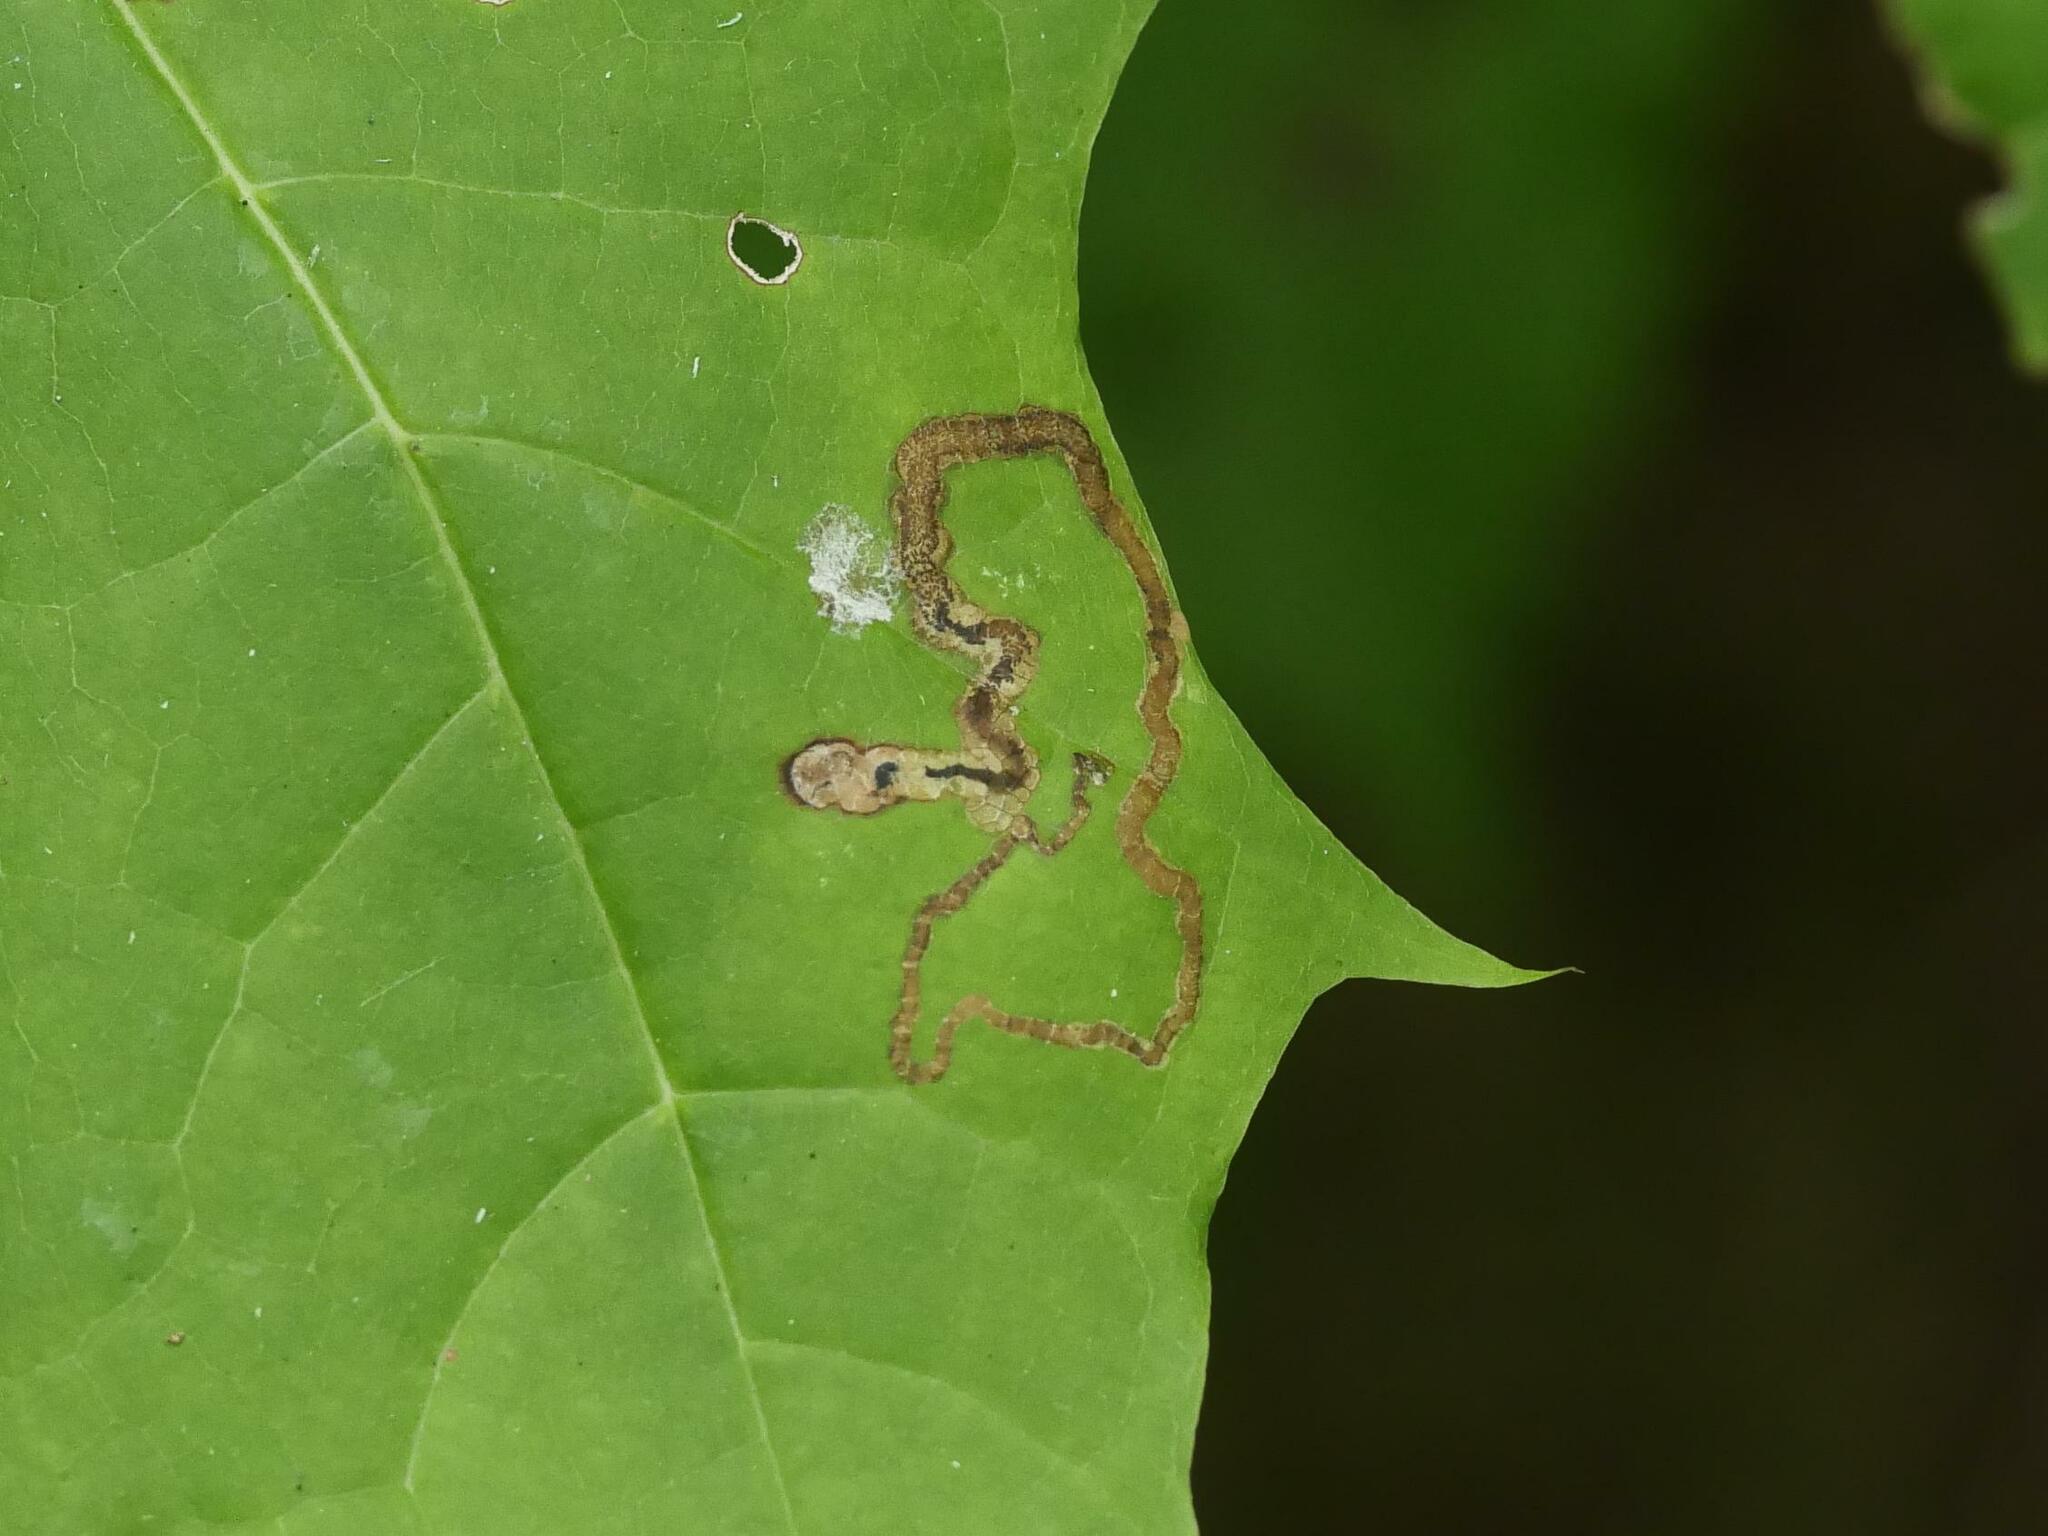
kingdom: Animalia
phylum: Arthropoda
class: Insecta
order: Lepidoptera
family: Nepticulidae
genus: Stigmella
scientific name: Stigmella aceris
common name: Scarce maple pigmy
